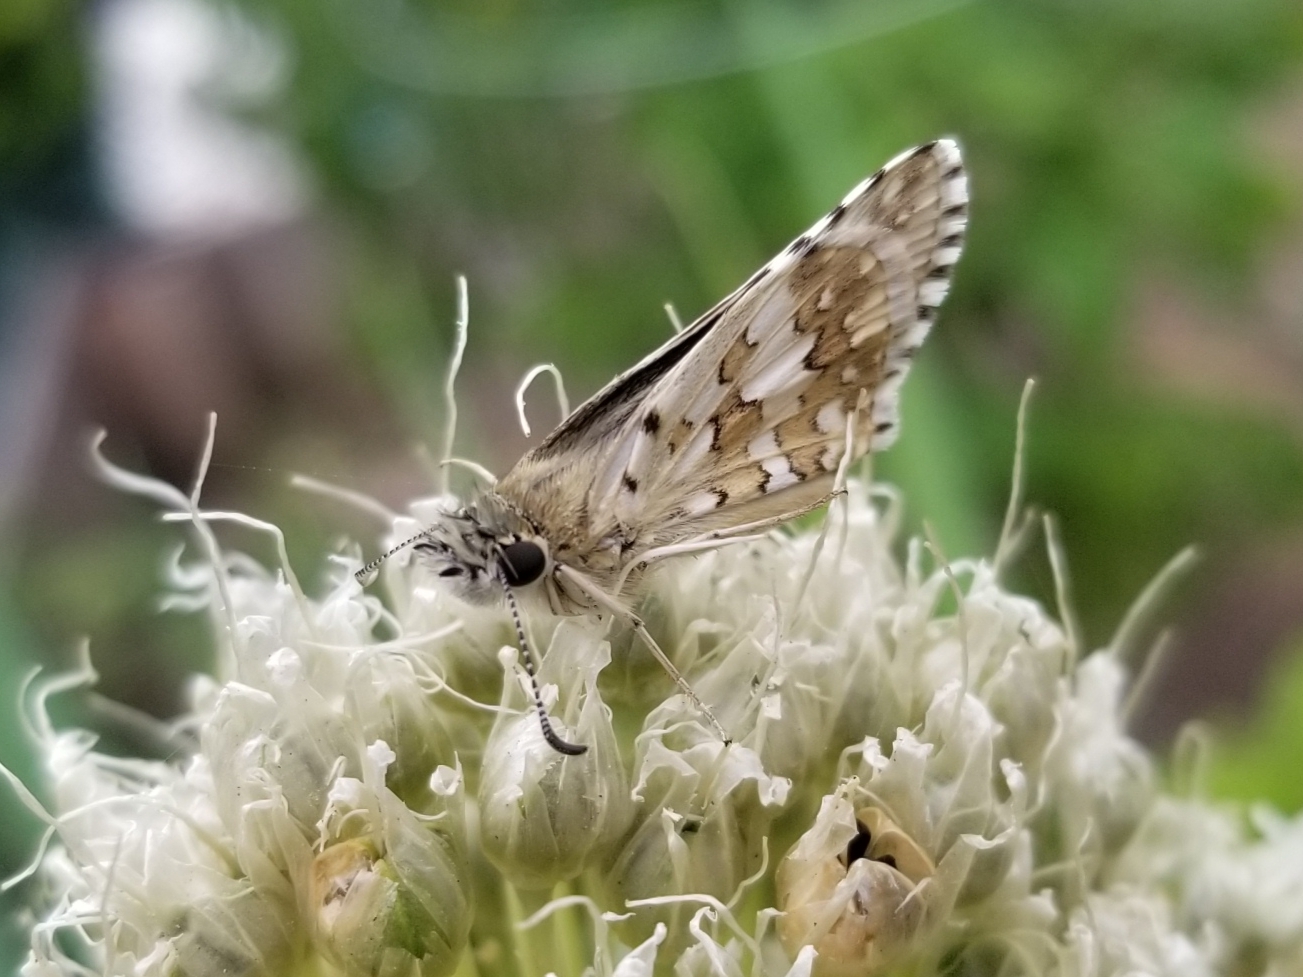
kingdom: Animalia
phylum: Arthropoda
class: Insecta
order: Lepidoptera
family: Hesperiidae
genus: Burnsius
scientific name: Burnsius communis
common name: Common checkered-skipper
